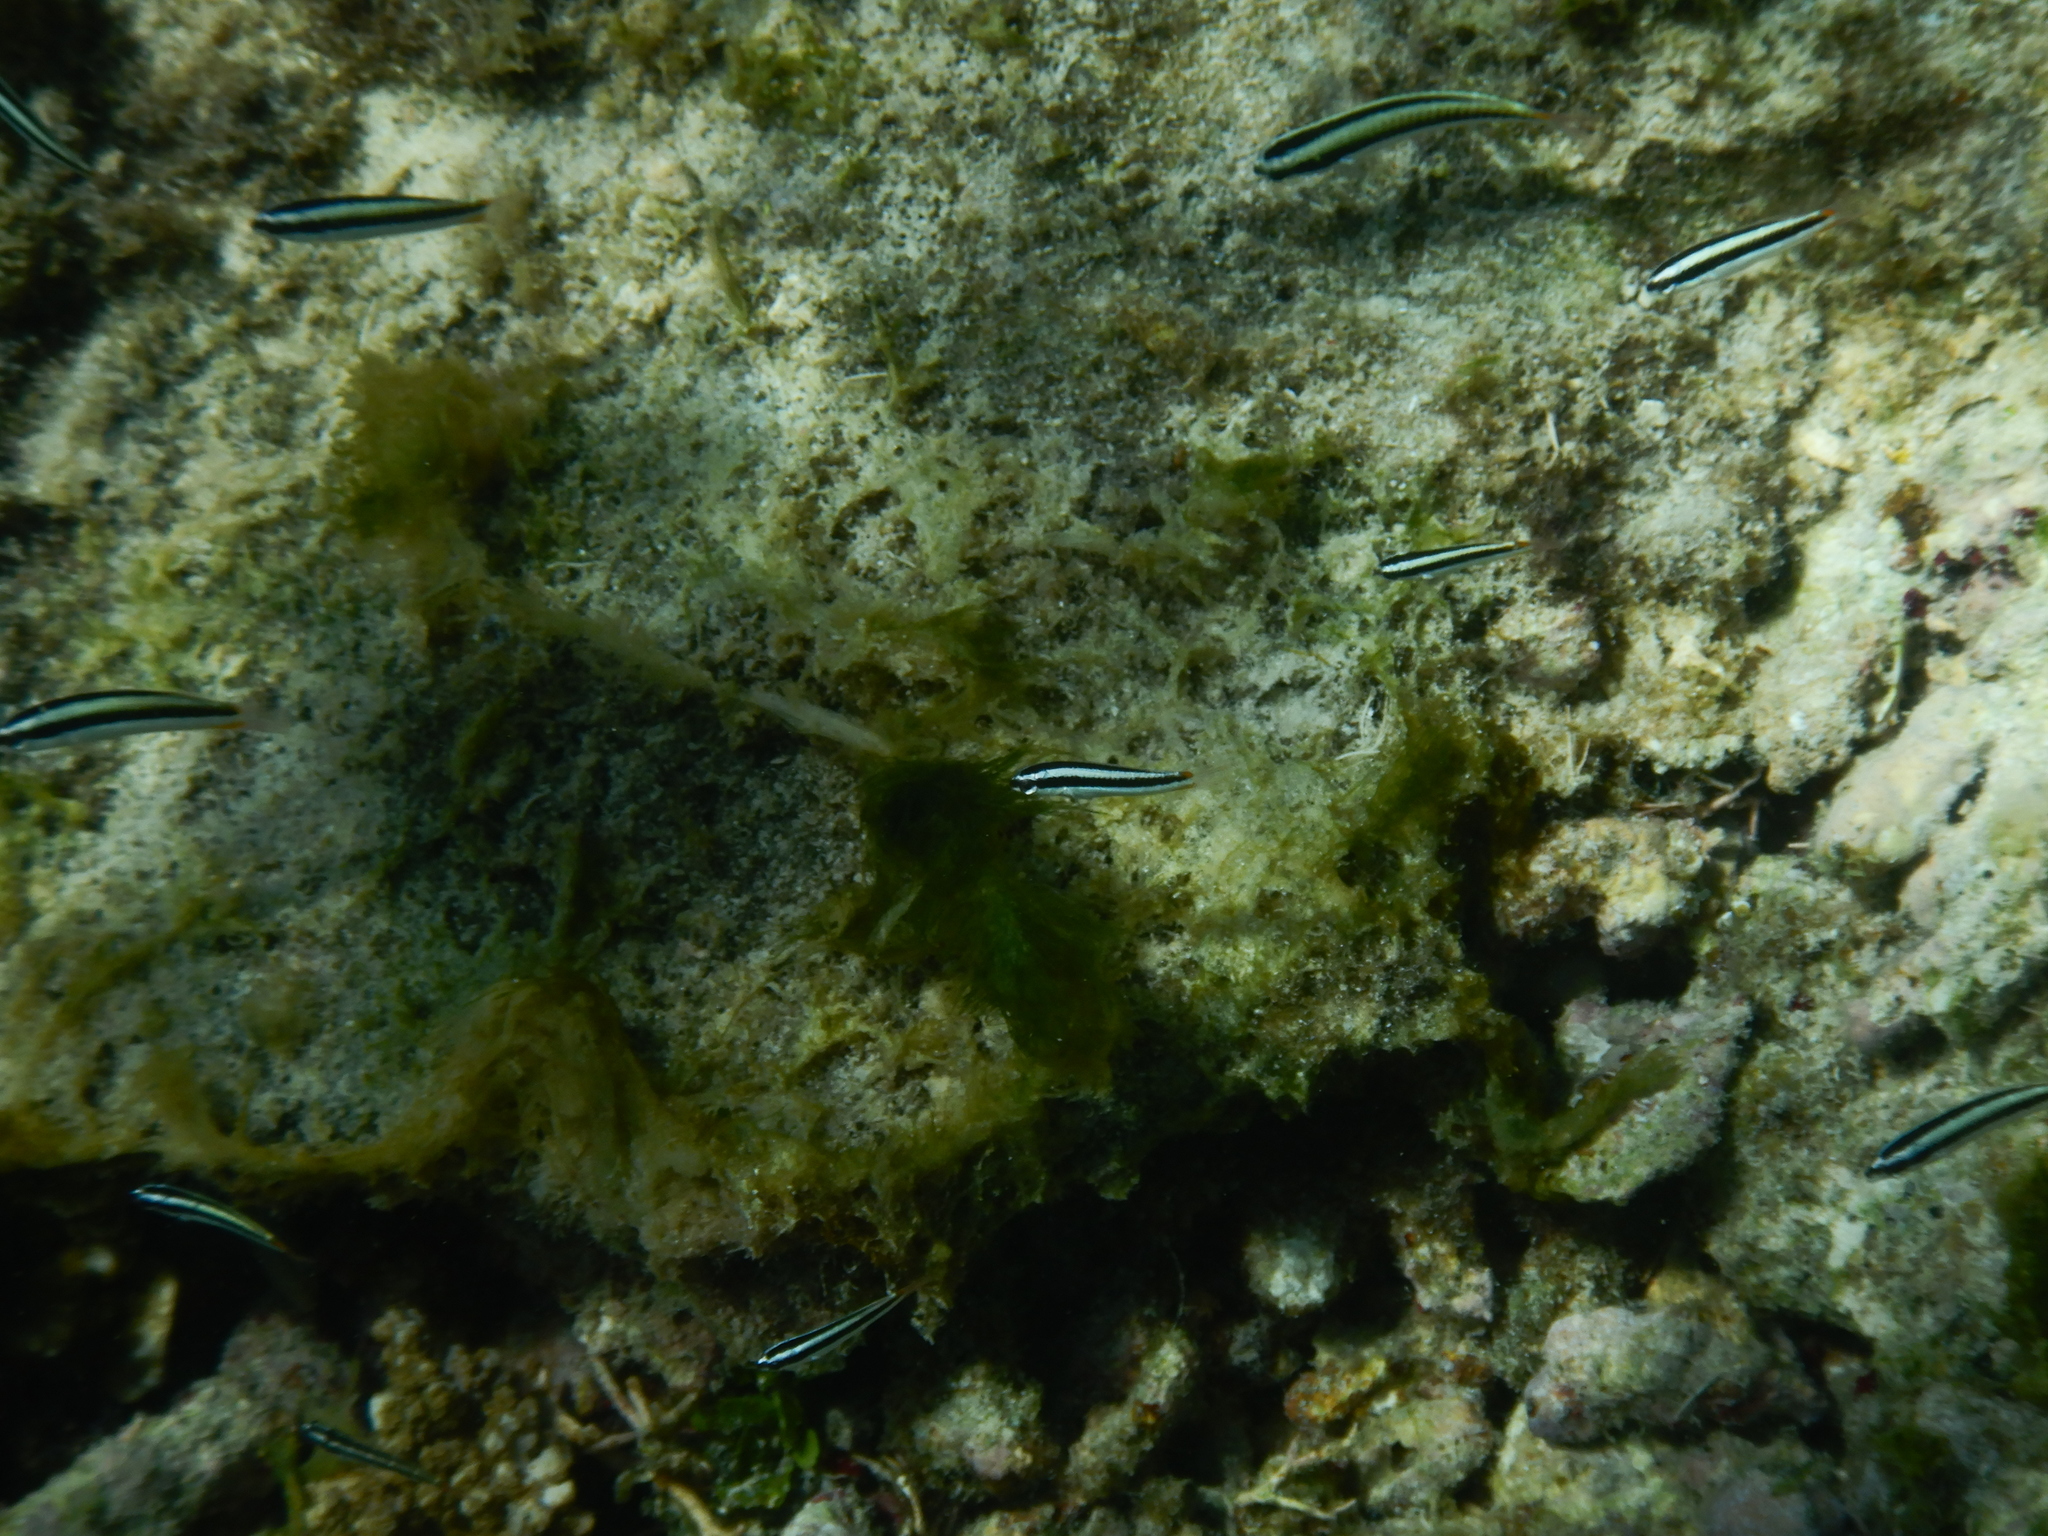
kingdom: Animalia
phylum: Chordata
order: Perciformes
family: Labridae
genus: Thalassoma
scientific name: Thalassoma amblycephalum
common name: Bluehead wrasse
